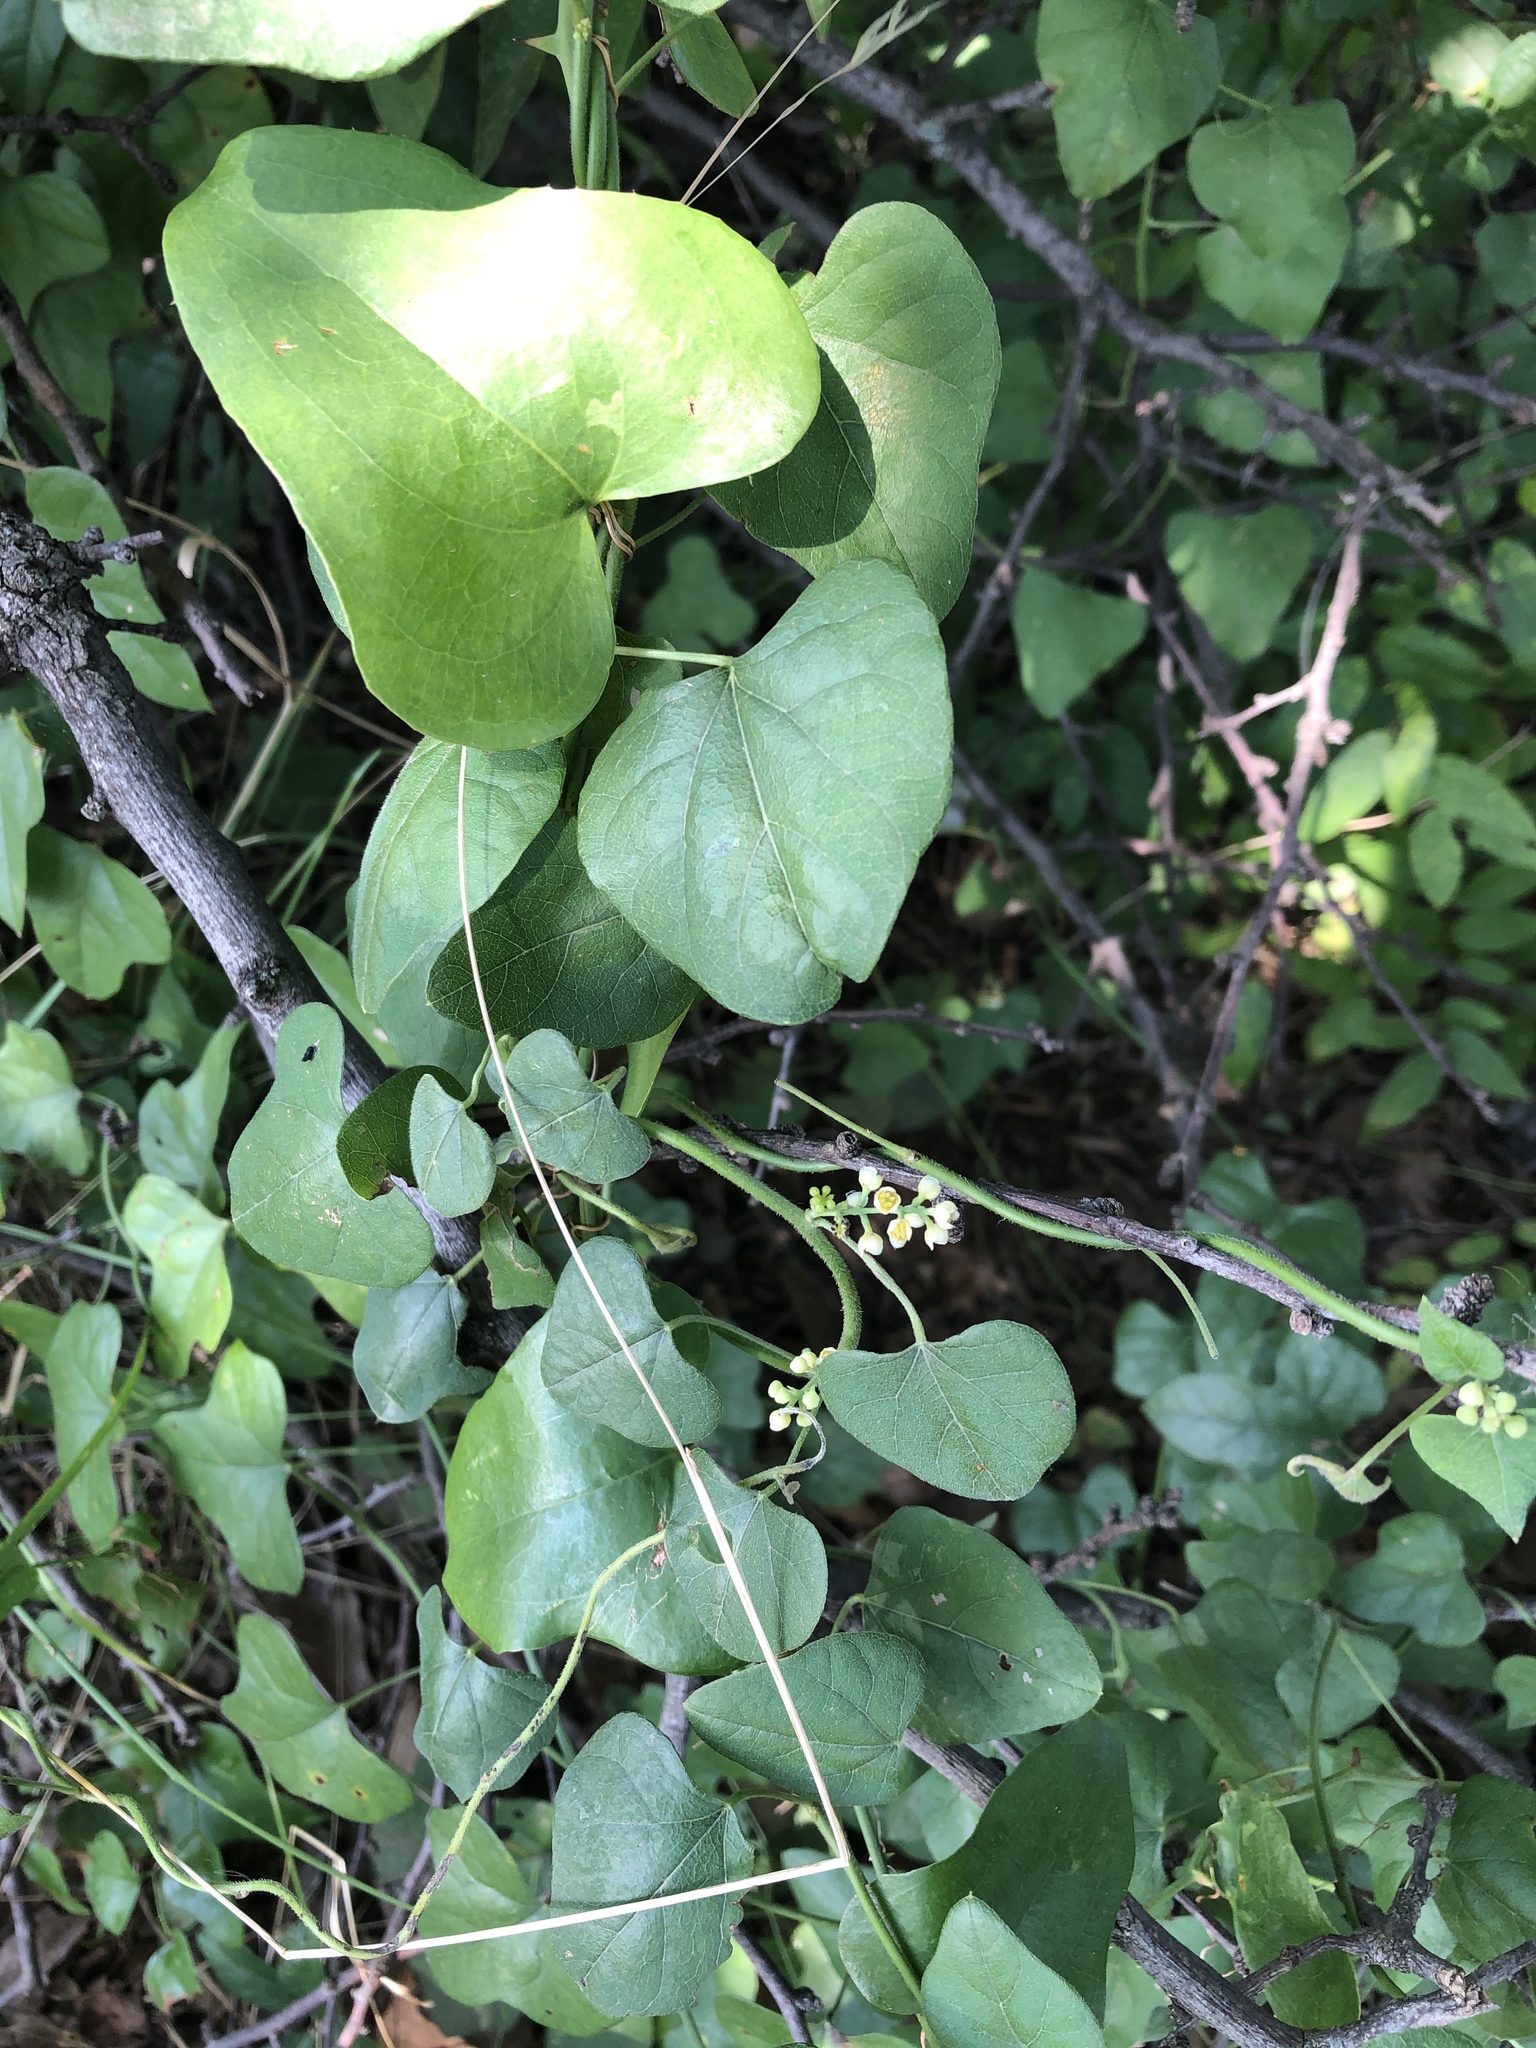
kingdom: Plantae
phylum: Tracheophyta
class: Magnoliopsida
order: Ranunculales
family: Menispermaceae
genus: Cocculus
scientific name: Cocculus carolinus
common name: Carolina moonseed
